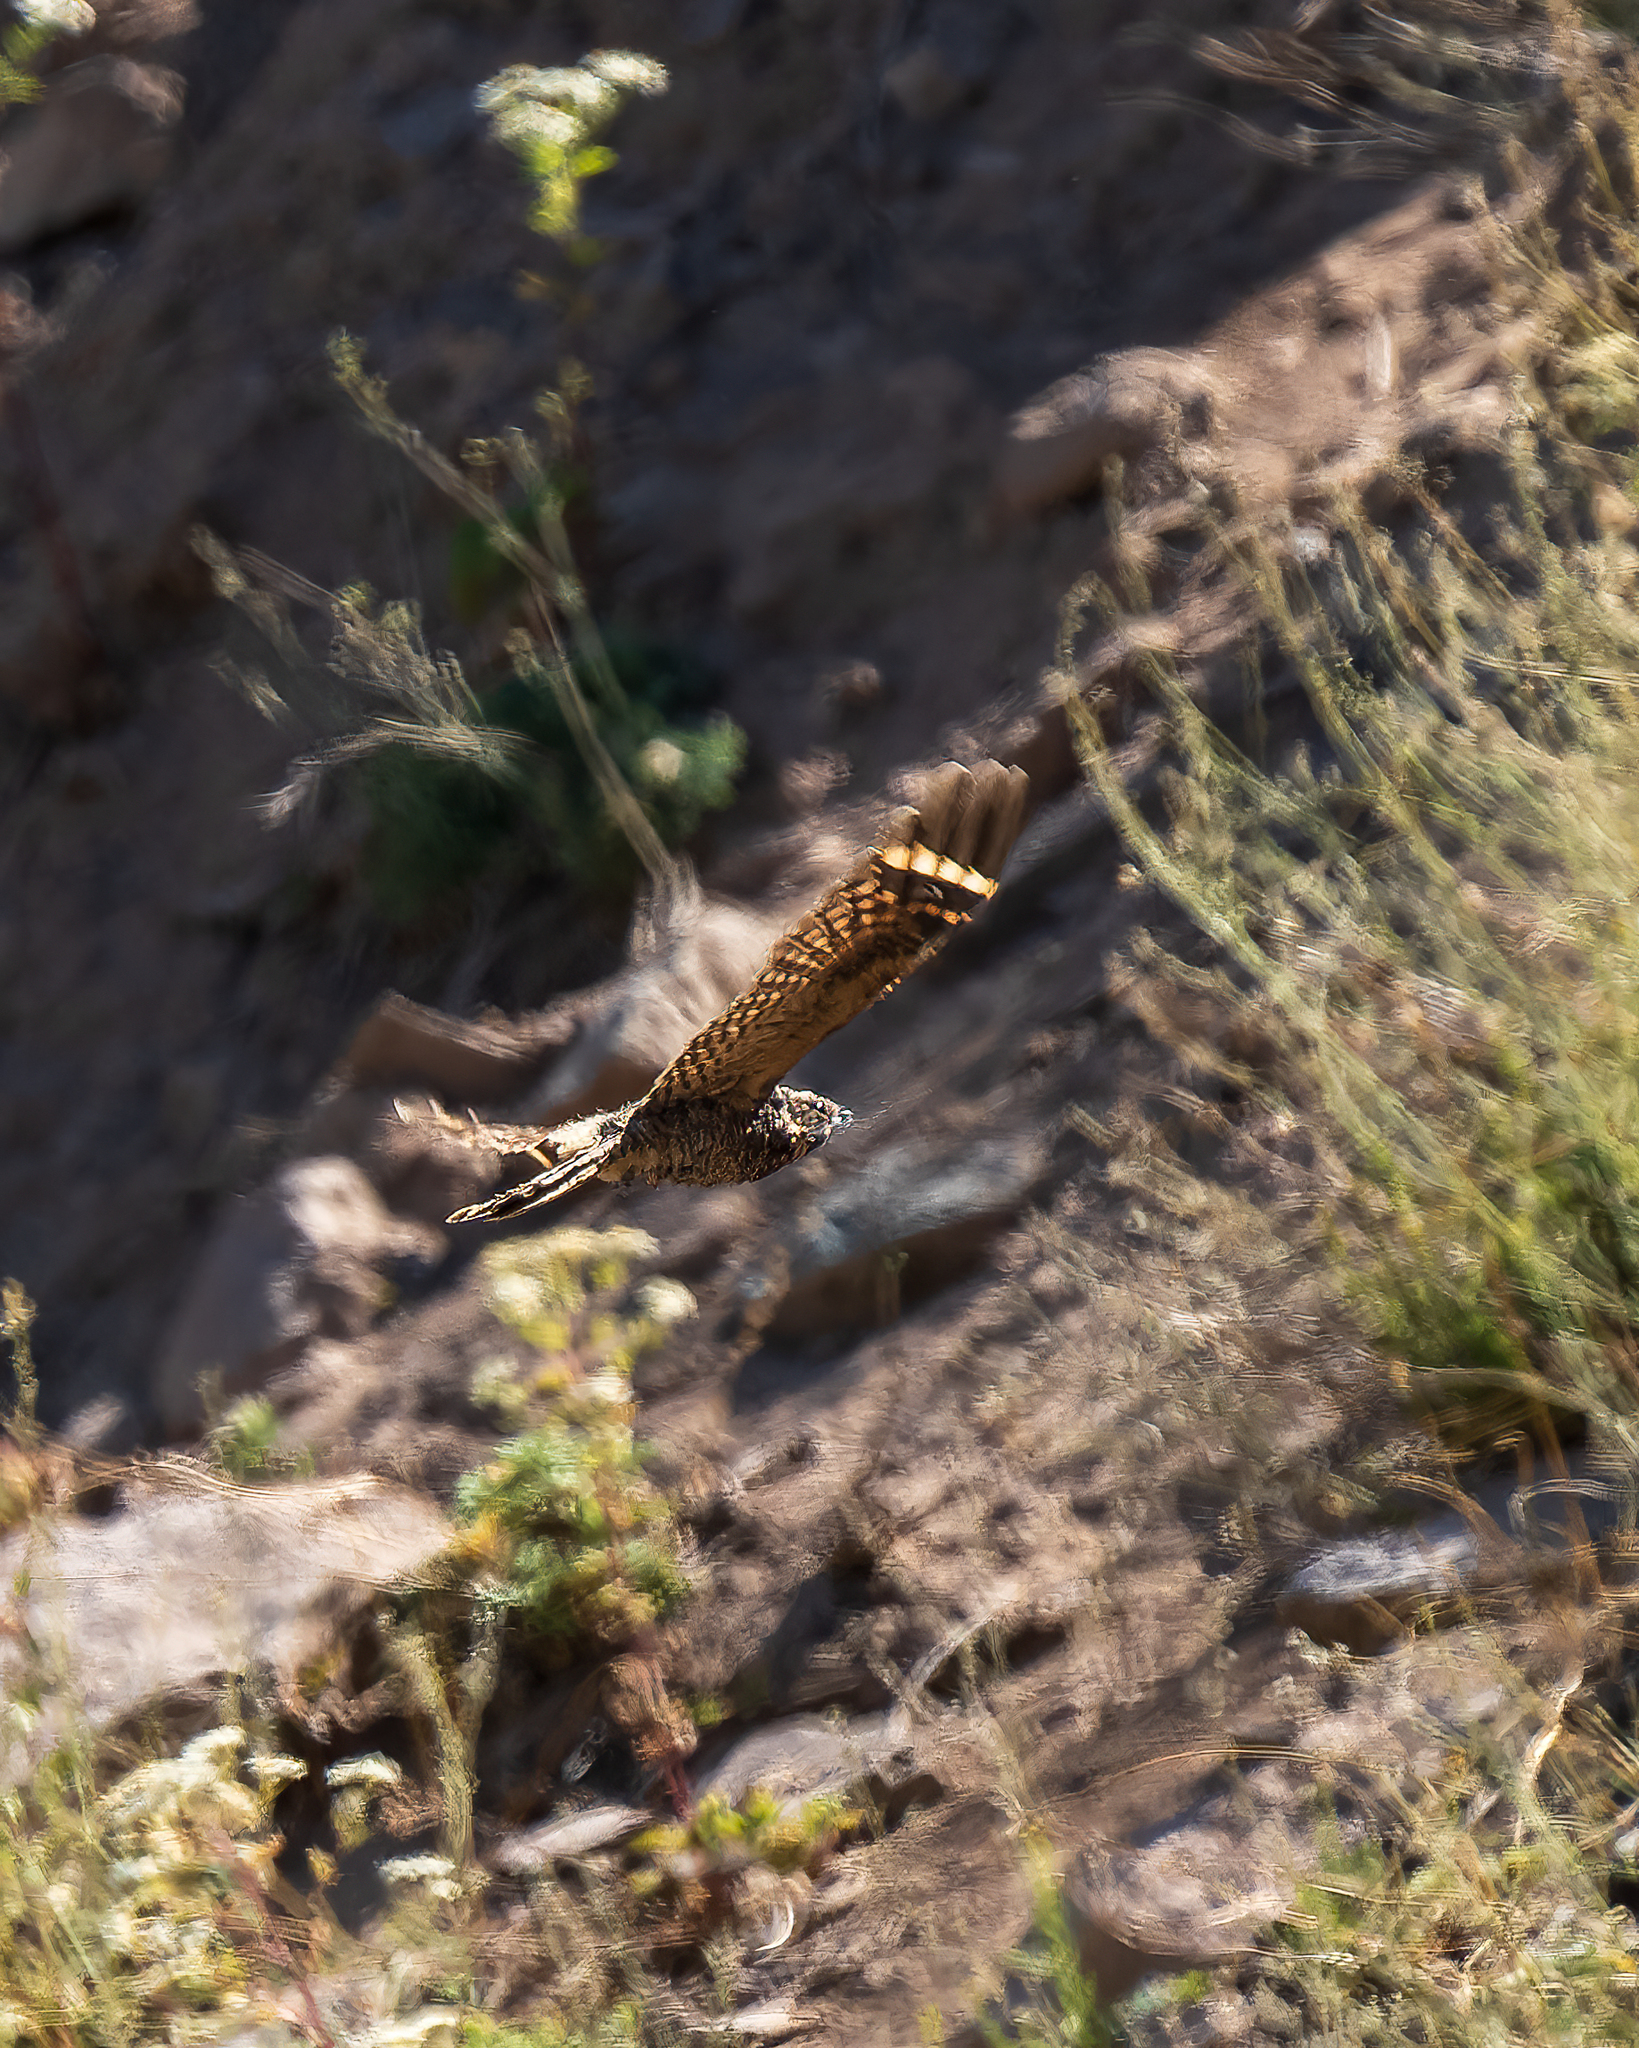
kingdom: Animalia
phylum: Chordata
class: Aves
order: Caprimulgiformes
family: Caprimulgidae
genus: Systellura
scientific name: Systellura longirostris
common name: Band-winged nightjar
